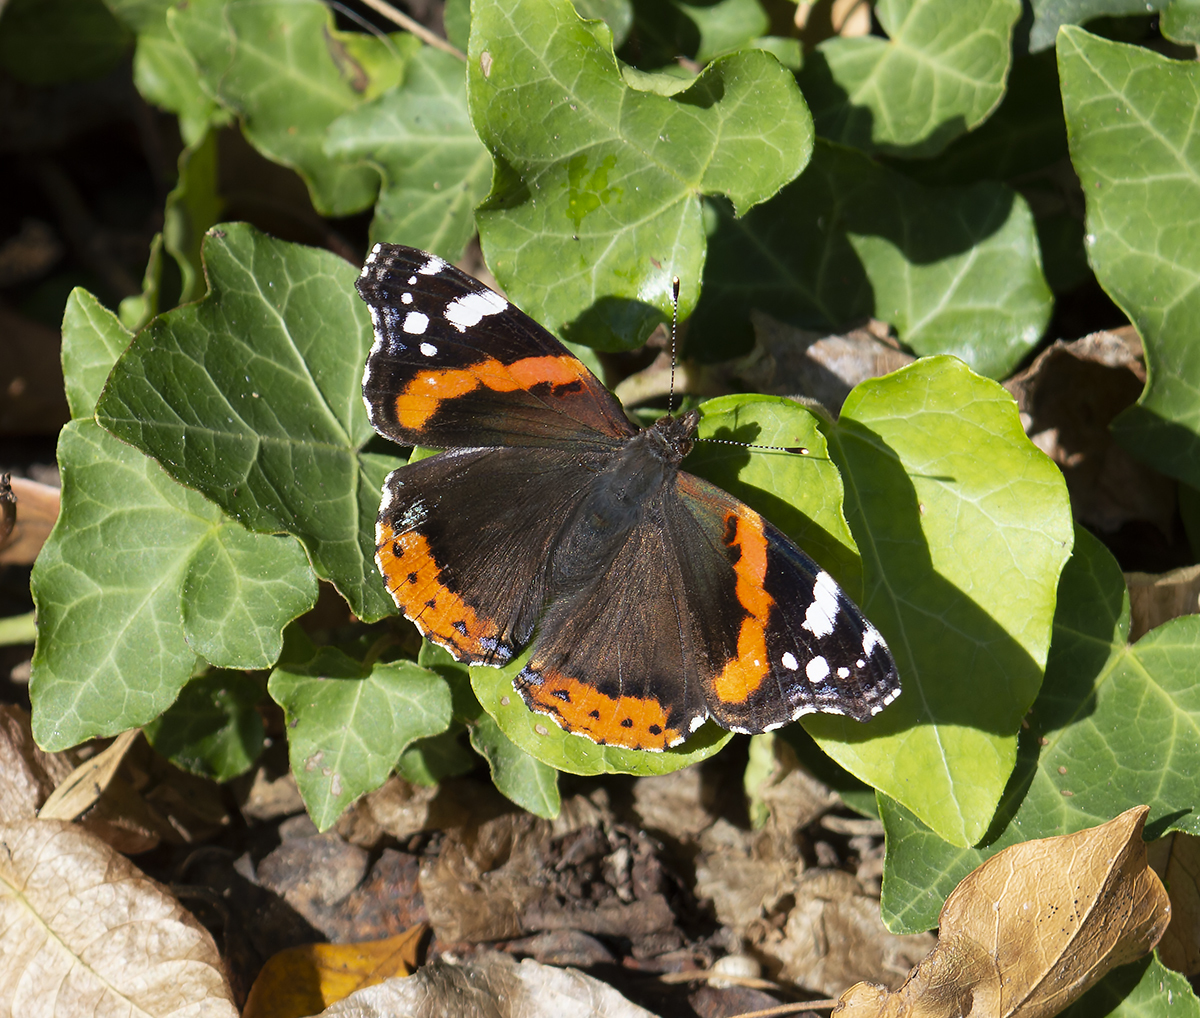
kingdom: Animalia
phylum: Arthropoda
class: Insecta
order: Lepidoptera
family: Nymphalidae
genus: Vanessa
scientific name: Vanessa atalanta
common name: Red admiral
